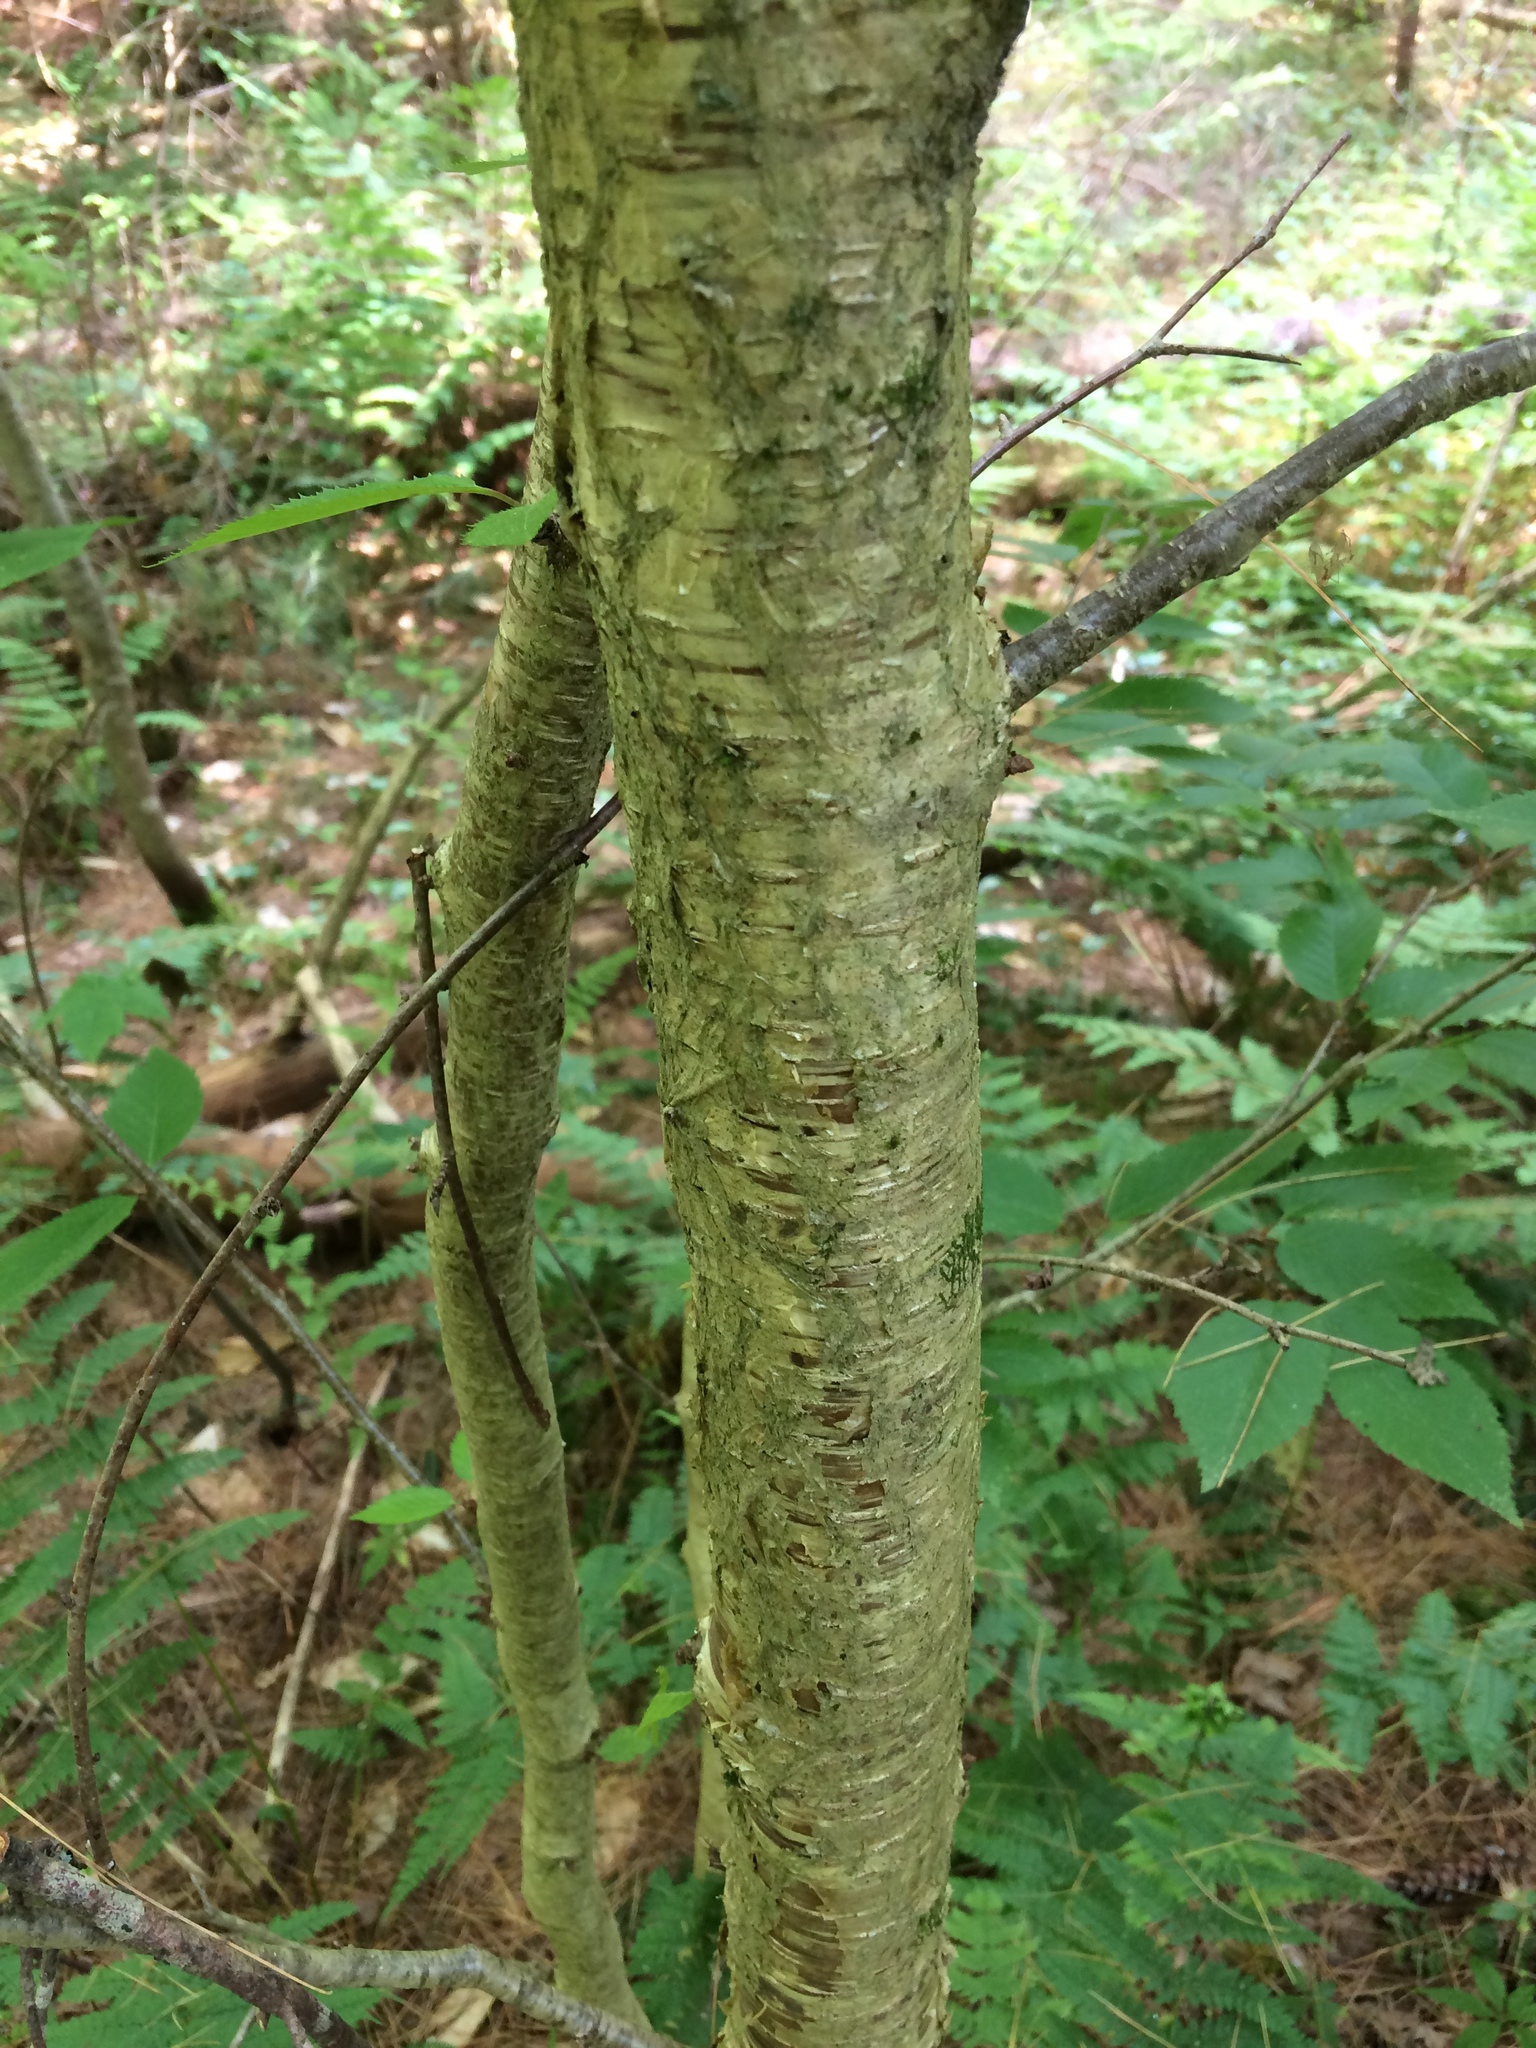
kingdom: Plantae
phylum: Tracheophyta
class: Magnoliopsida
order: Fagales
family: Betulaceae
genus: Betula
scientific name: Betula alleghaniensis
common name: Yellow birch
